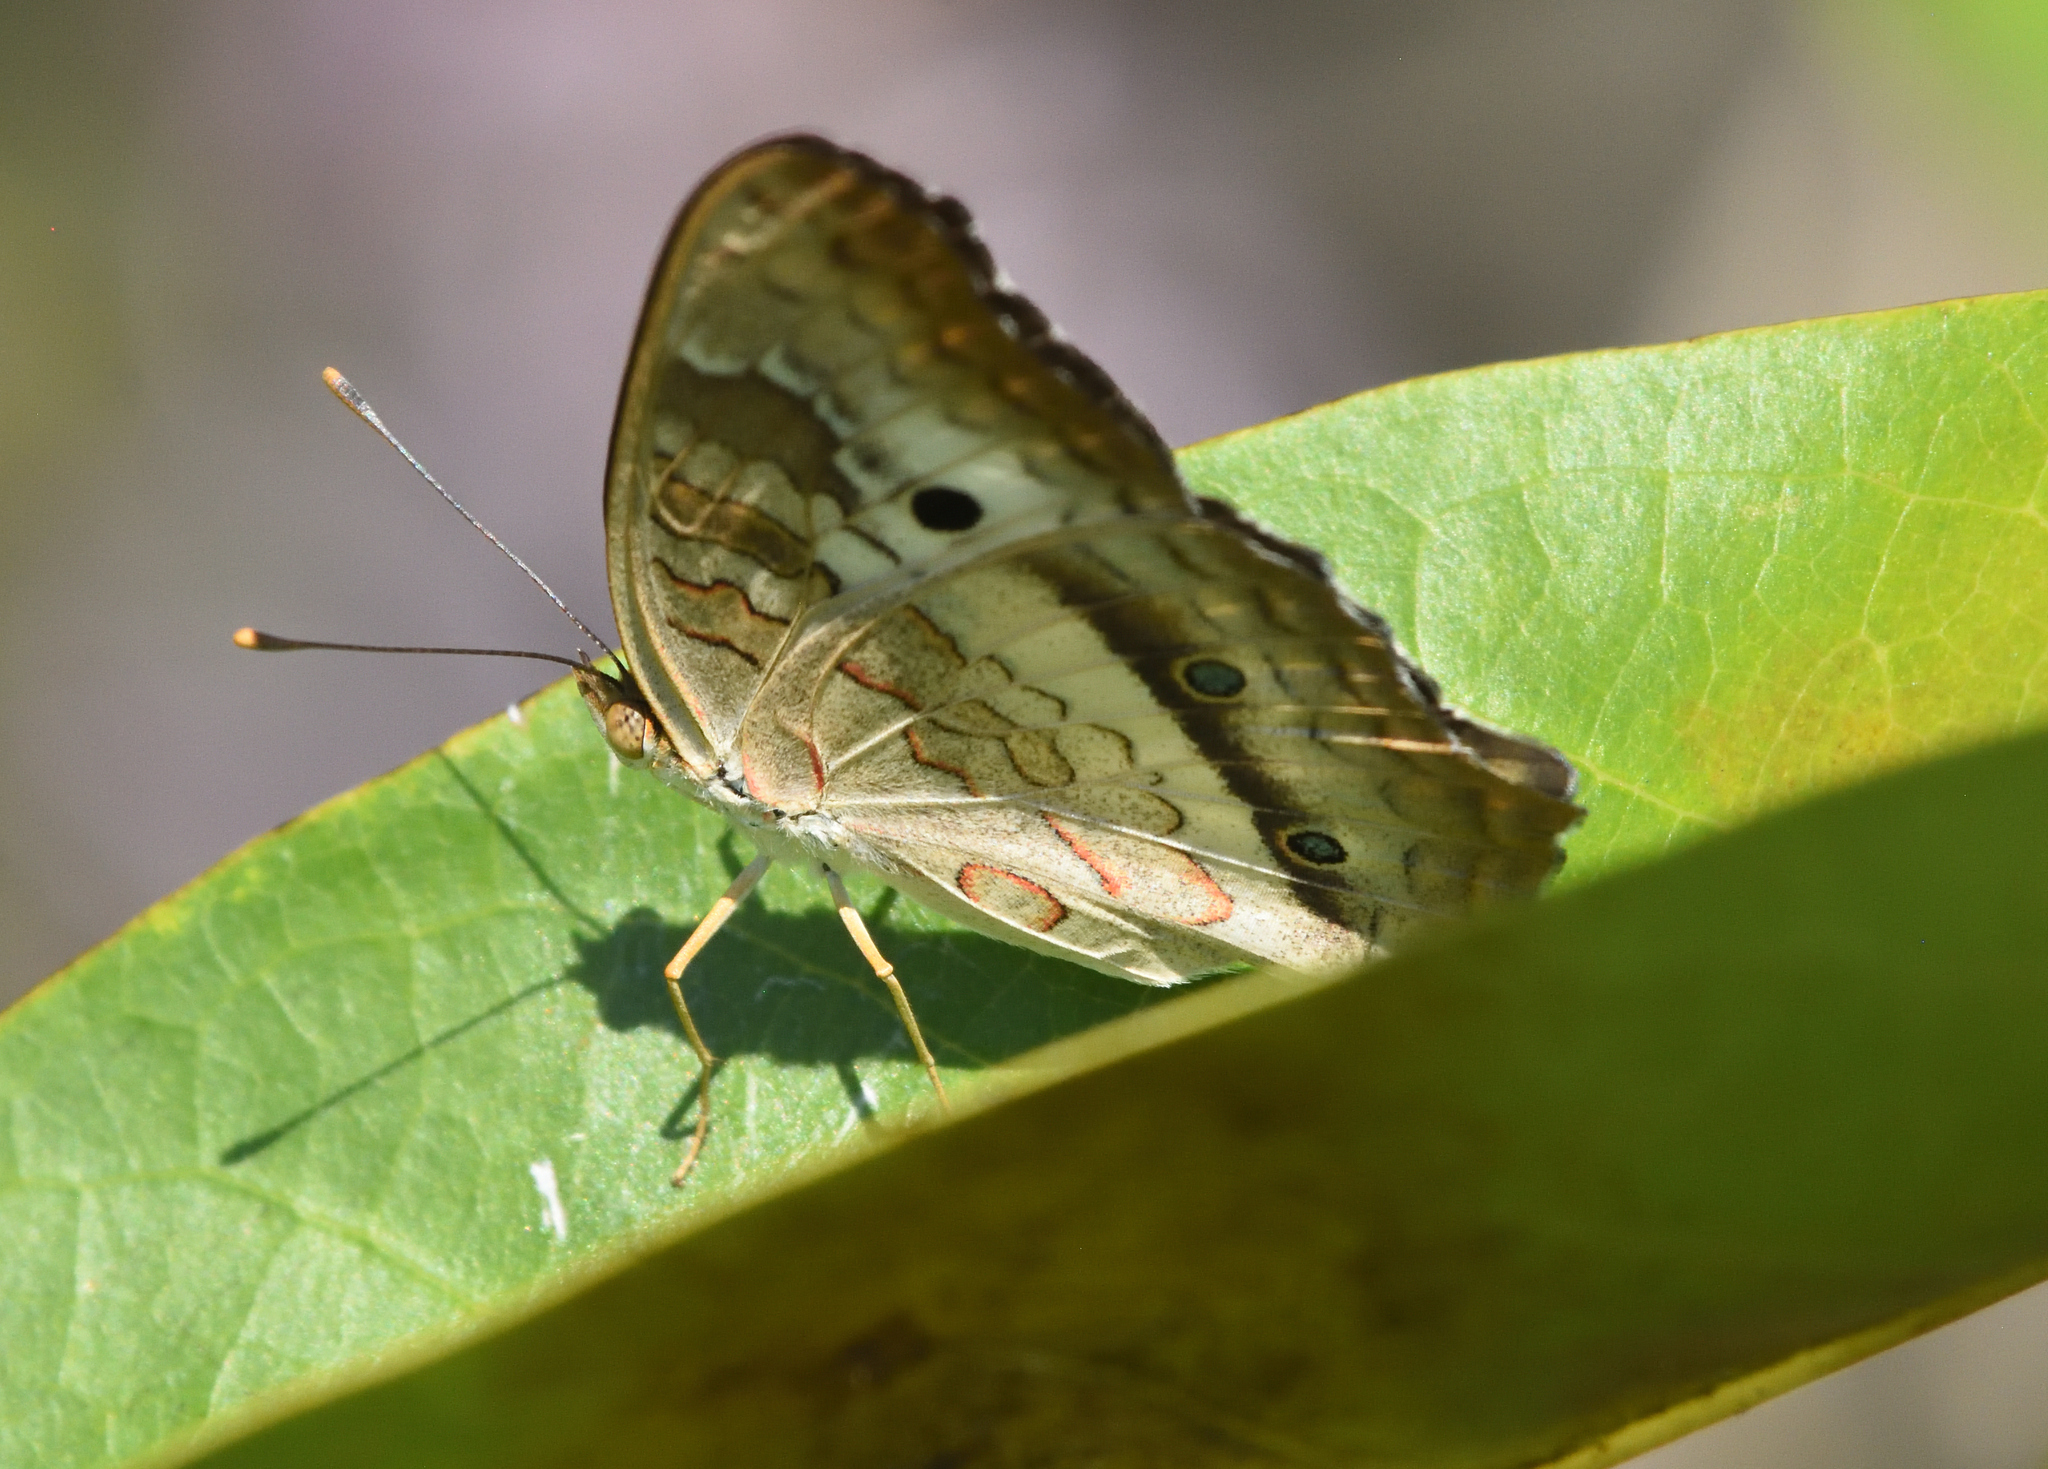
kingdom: Animalia
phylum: Arthropoda
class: Insecta
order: Lepidoptera
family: Nymphalidae
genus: Anartia
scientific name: Anartia jatrophae
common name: White peacock
